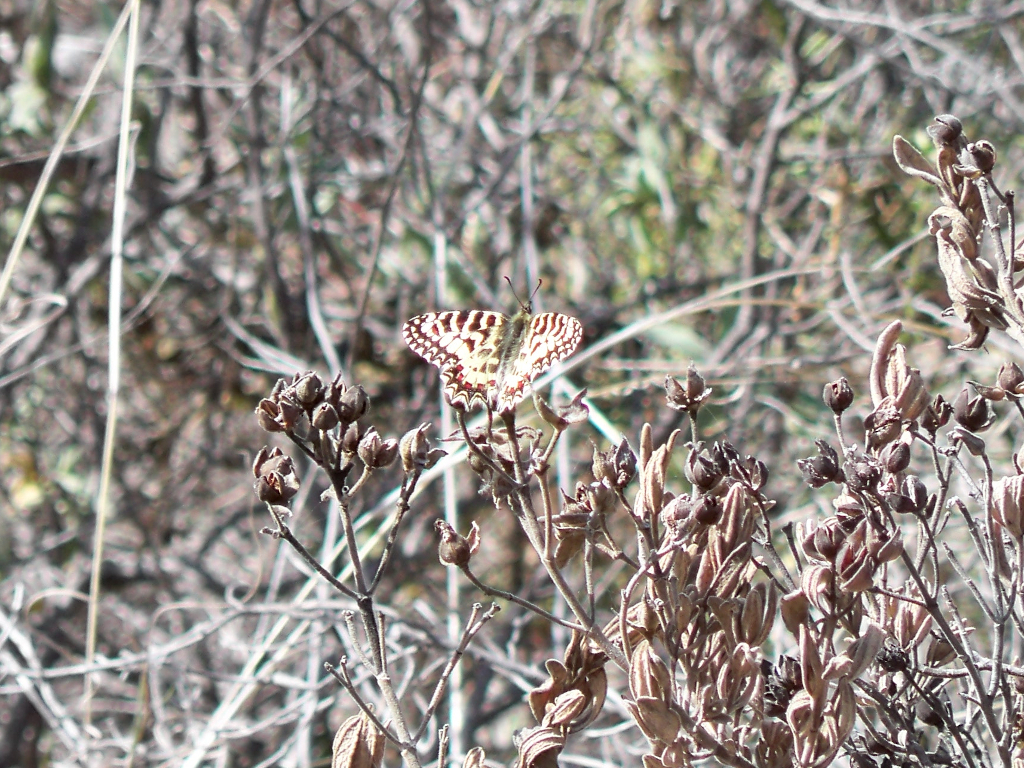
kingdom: Animalia
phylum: Arthropoda
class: Insecta
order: Lepidoptera
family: Papilionidae
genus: Zerynthia
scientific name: Zerynthia rumina
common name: Spanish festoon
